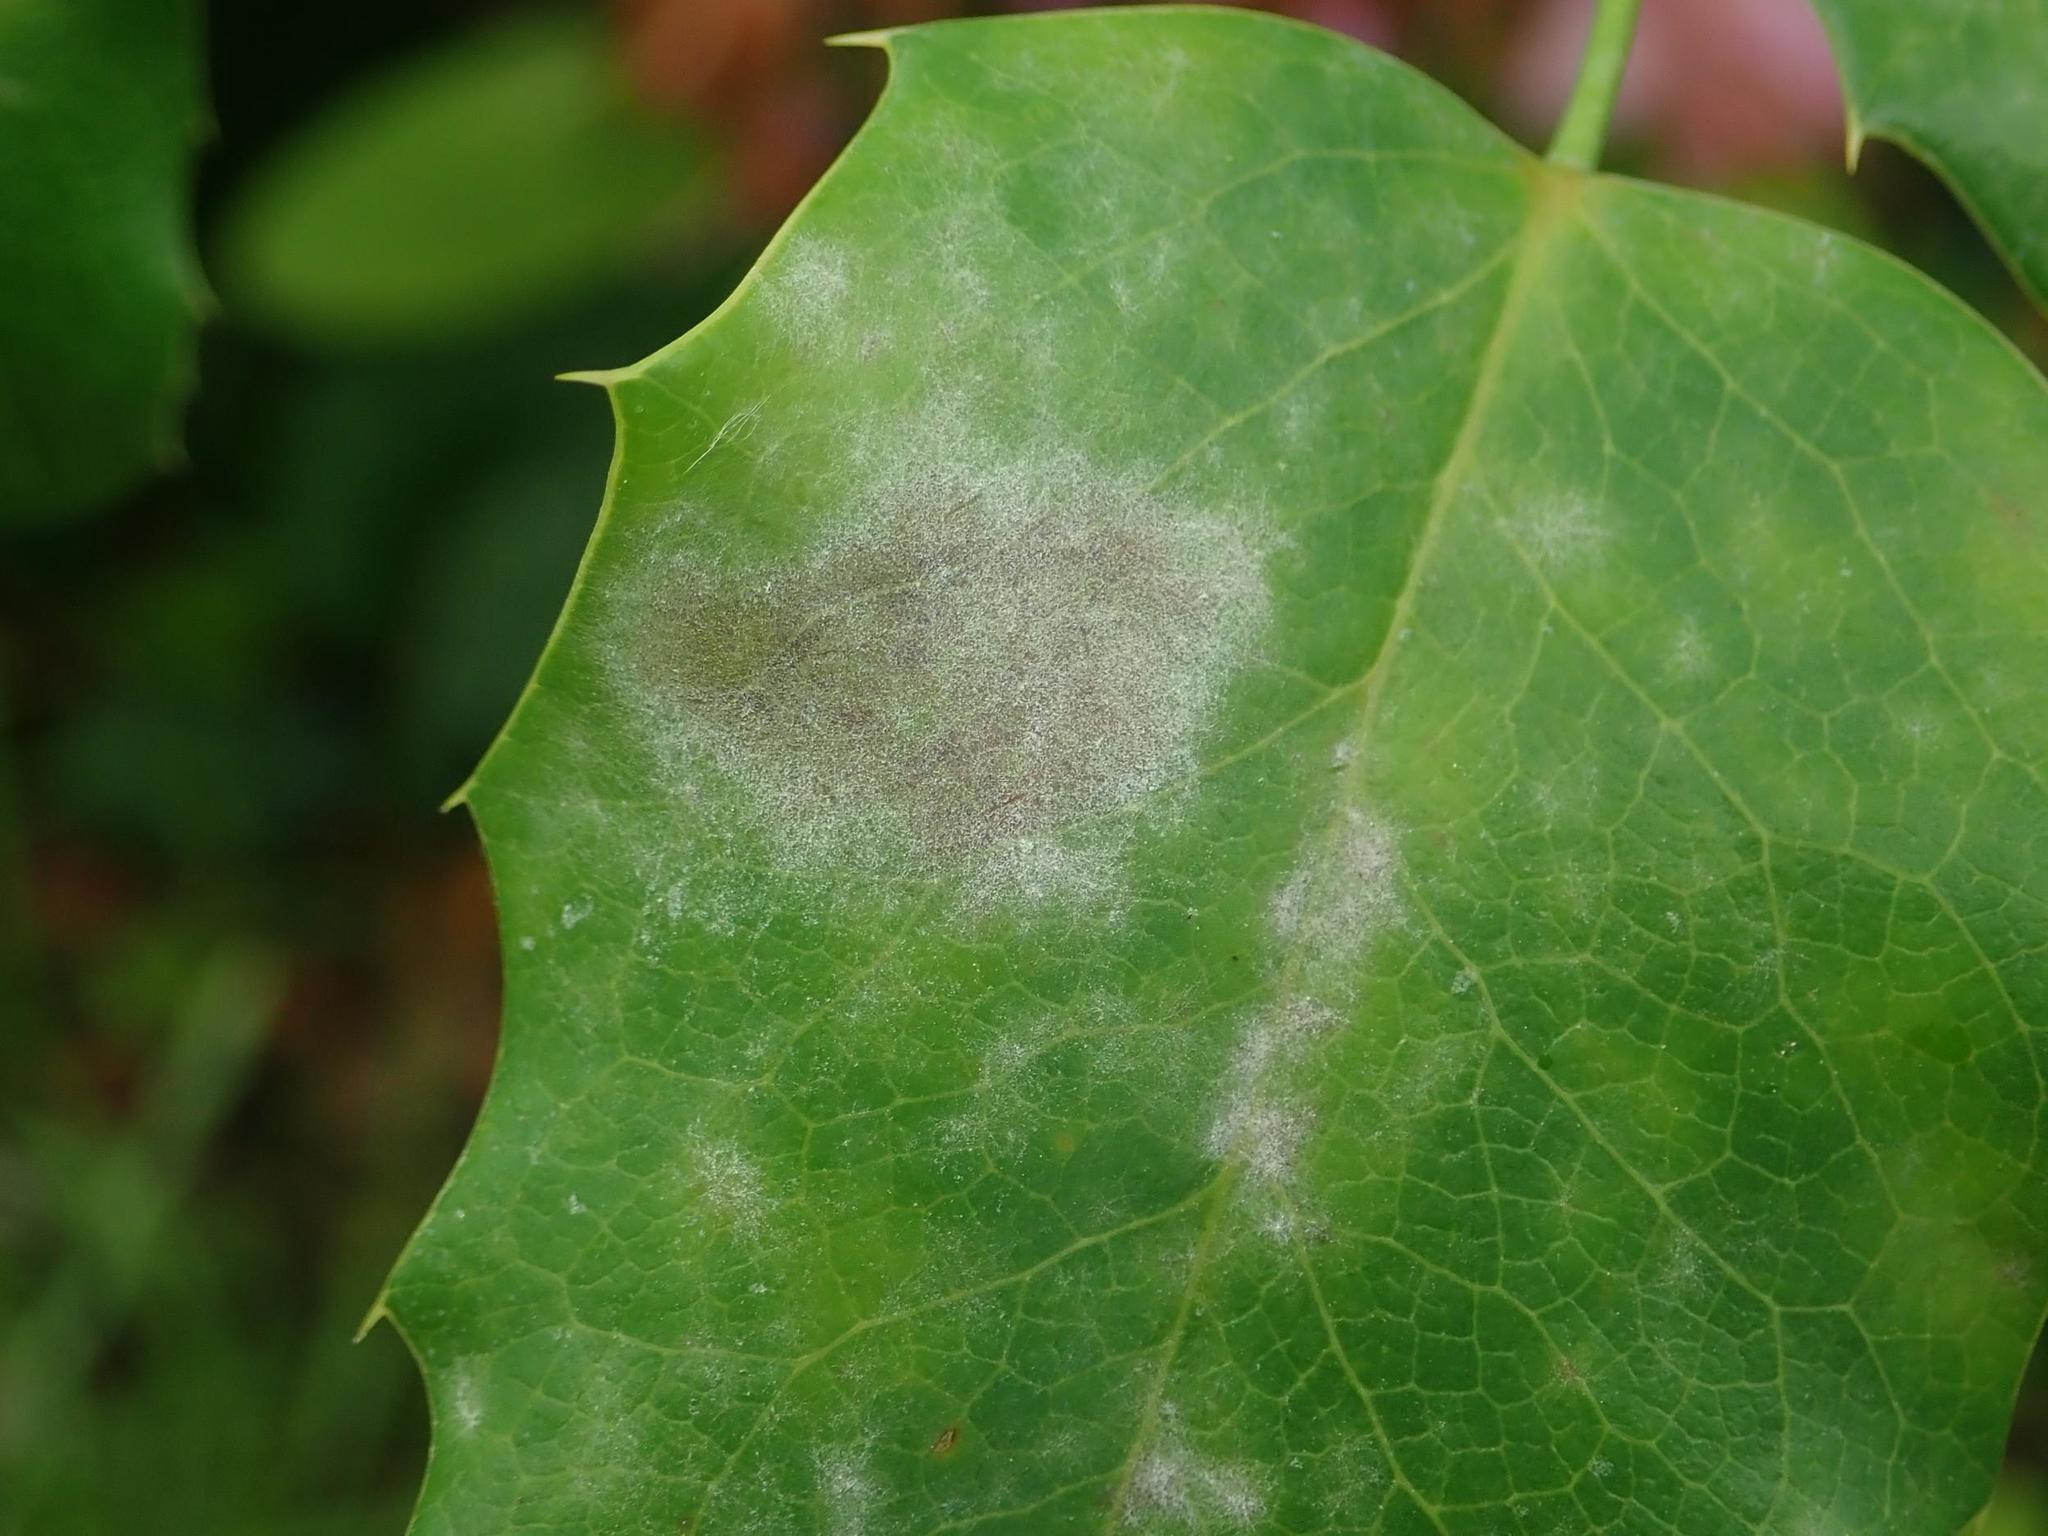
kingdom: Fungi
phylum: Ascomycota
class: Leotiomycetes
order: Helotiales
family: Erysiphaceae
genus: Erysiphe
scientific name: Erysiphe berberidis
